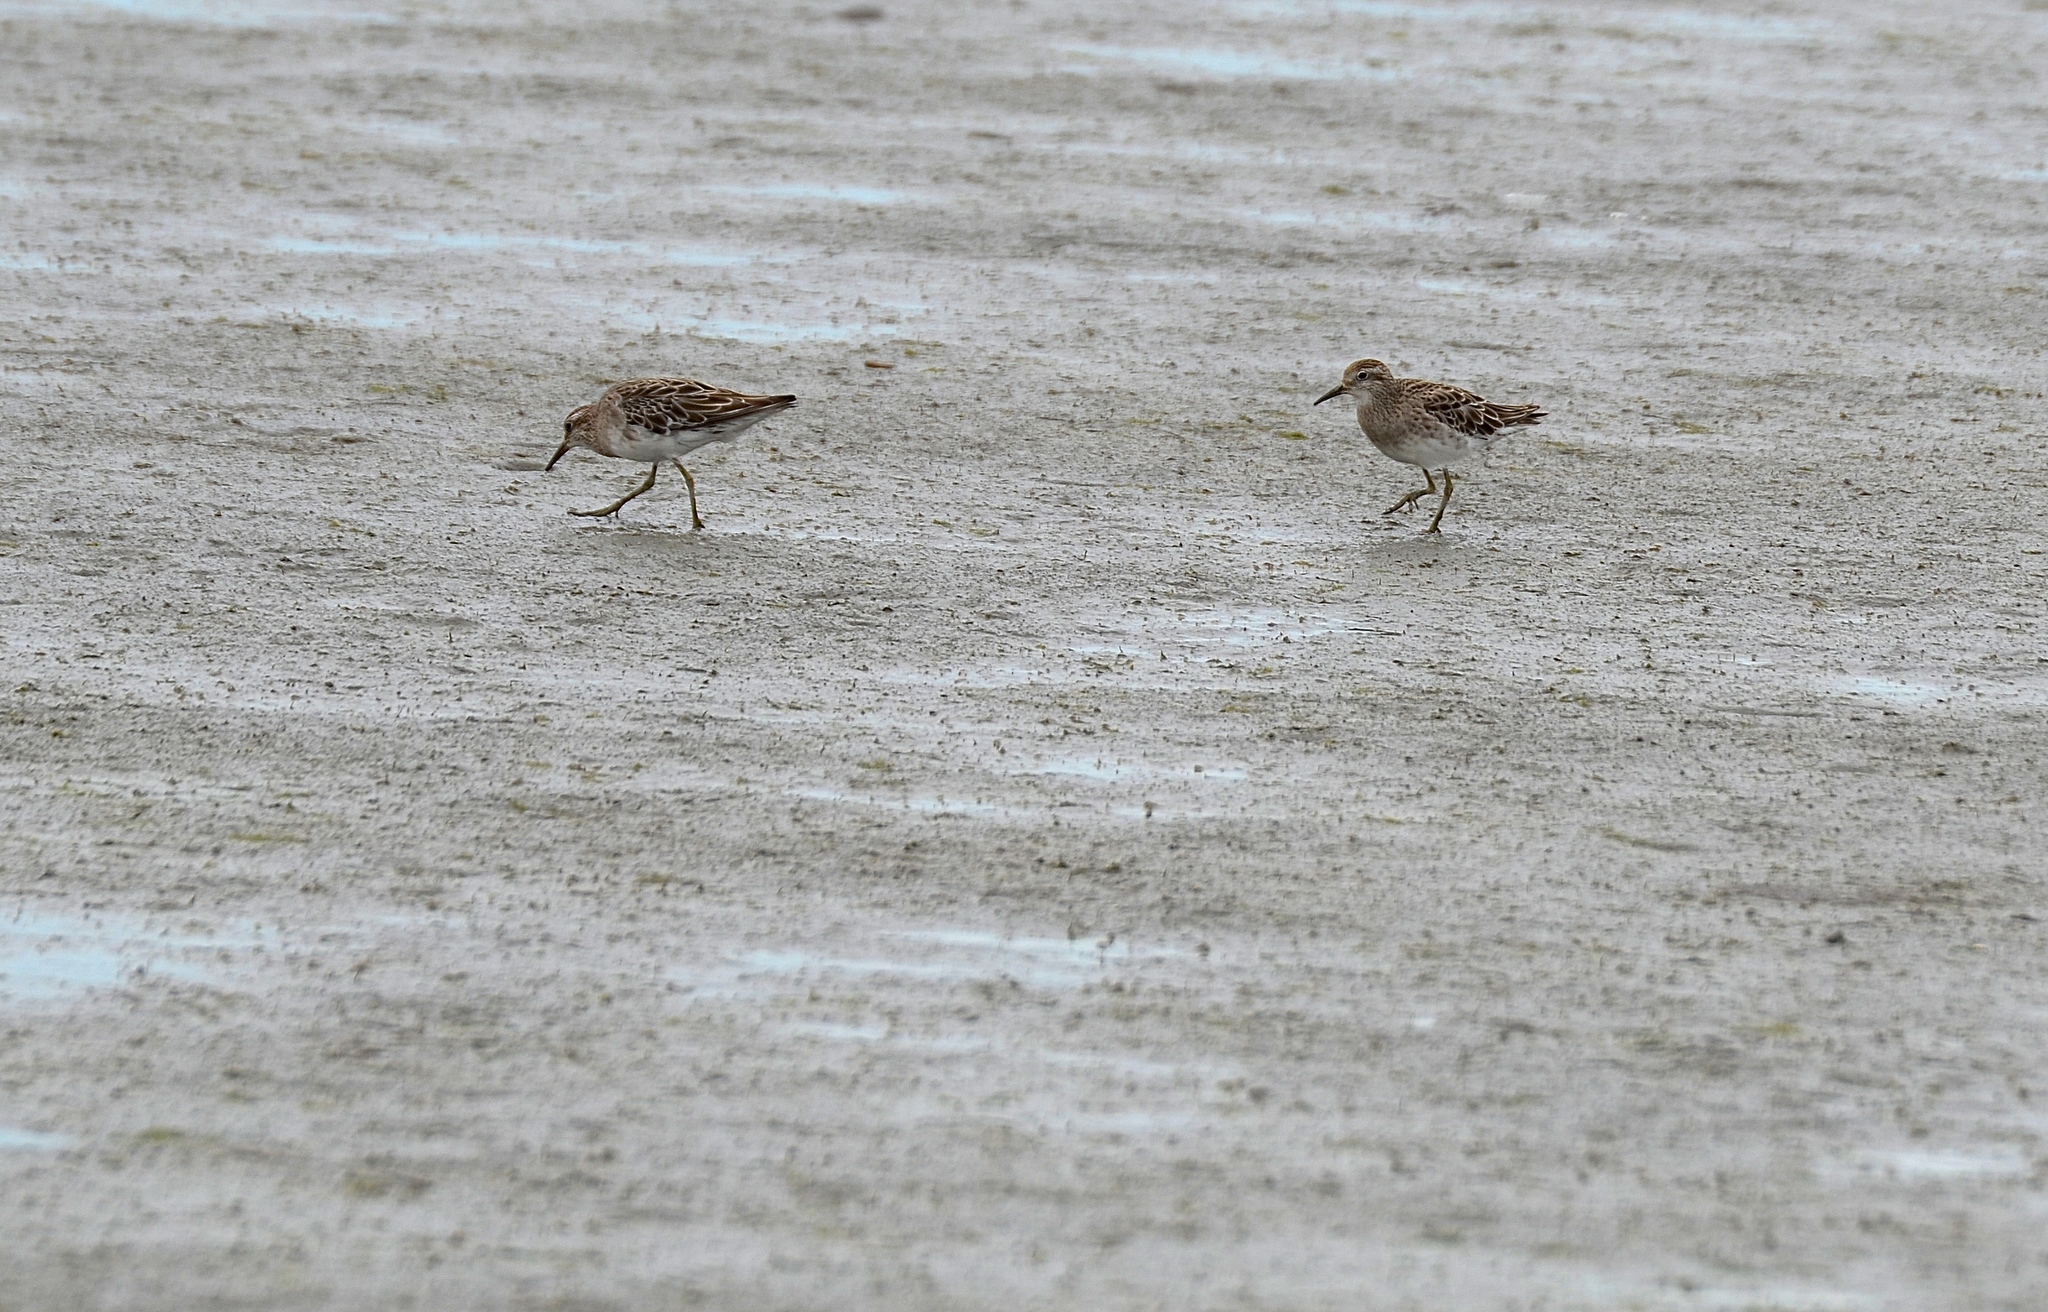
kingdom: Animalia
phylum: Chordata
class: Aves
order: Charadriiformes
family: Scolopacidae
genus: Calidris
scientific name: Calidris acuminata
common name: Sharp-tailed sandpiper
